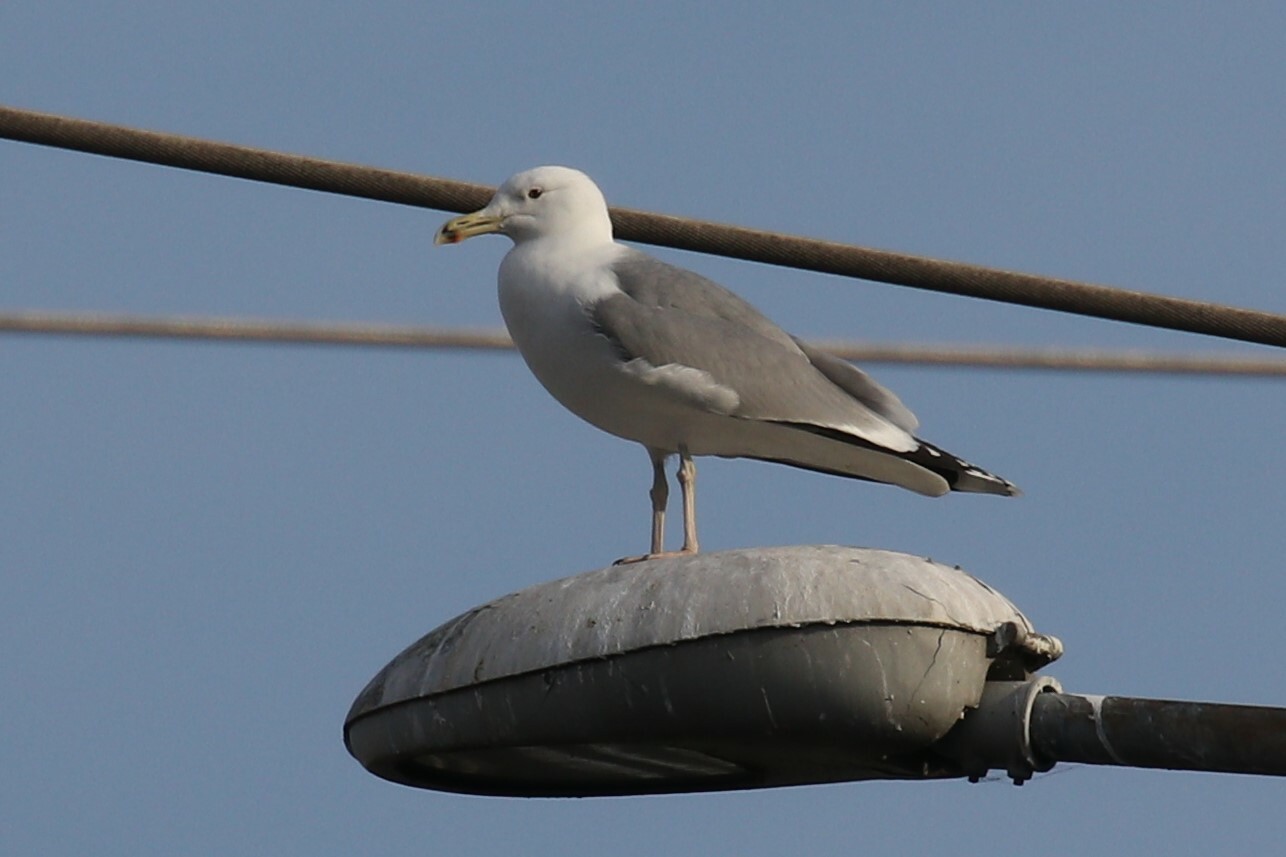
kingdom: Animalia
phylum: Chordata
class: Aves
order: Charadriiformes
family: Laridae
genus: Larus
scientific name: Larus cachinnans
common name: Caspian gull
